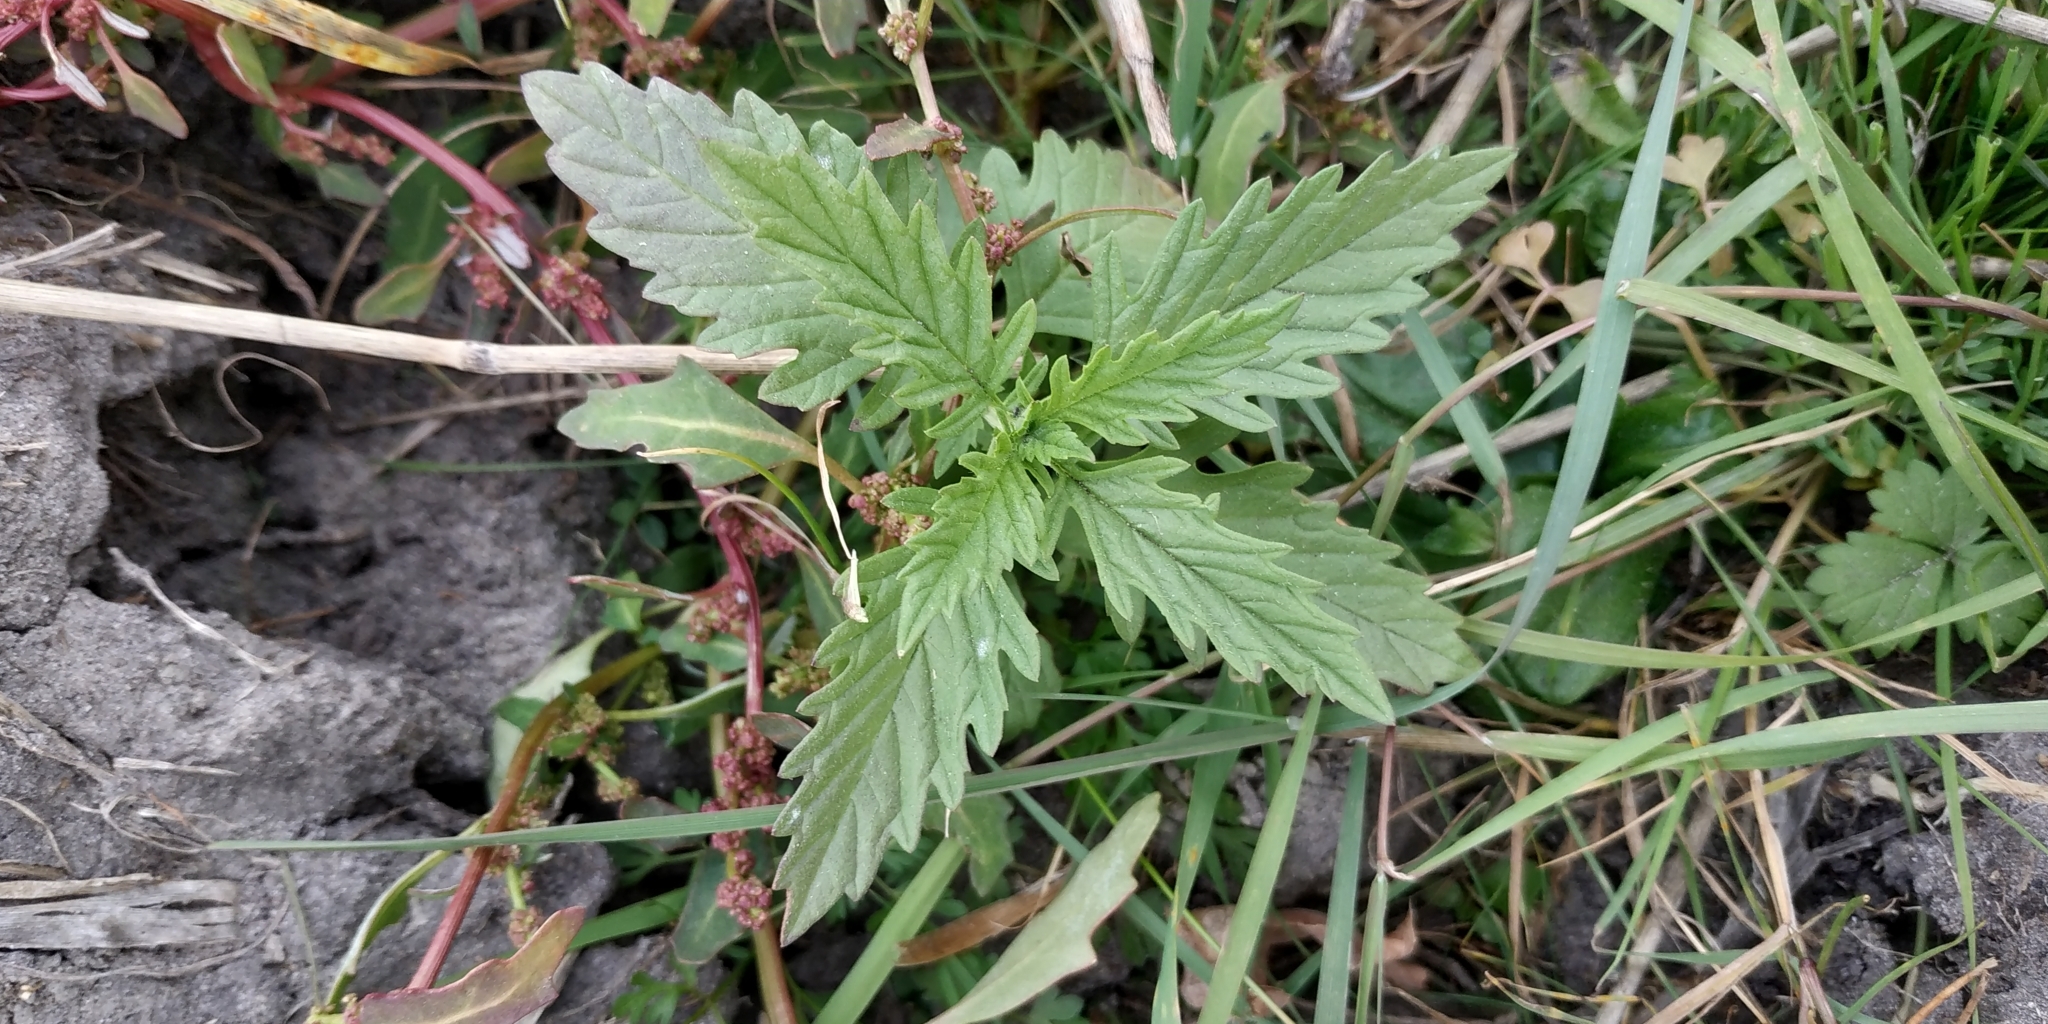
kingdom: Plantae
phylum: Tracheophyta
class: Magnoliopsida
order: Lamiales
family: Lamiaceae
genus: Lycopus
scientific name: Lycopus europaeus
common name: European bugleweed
